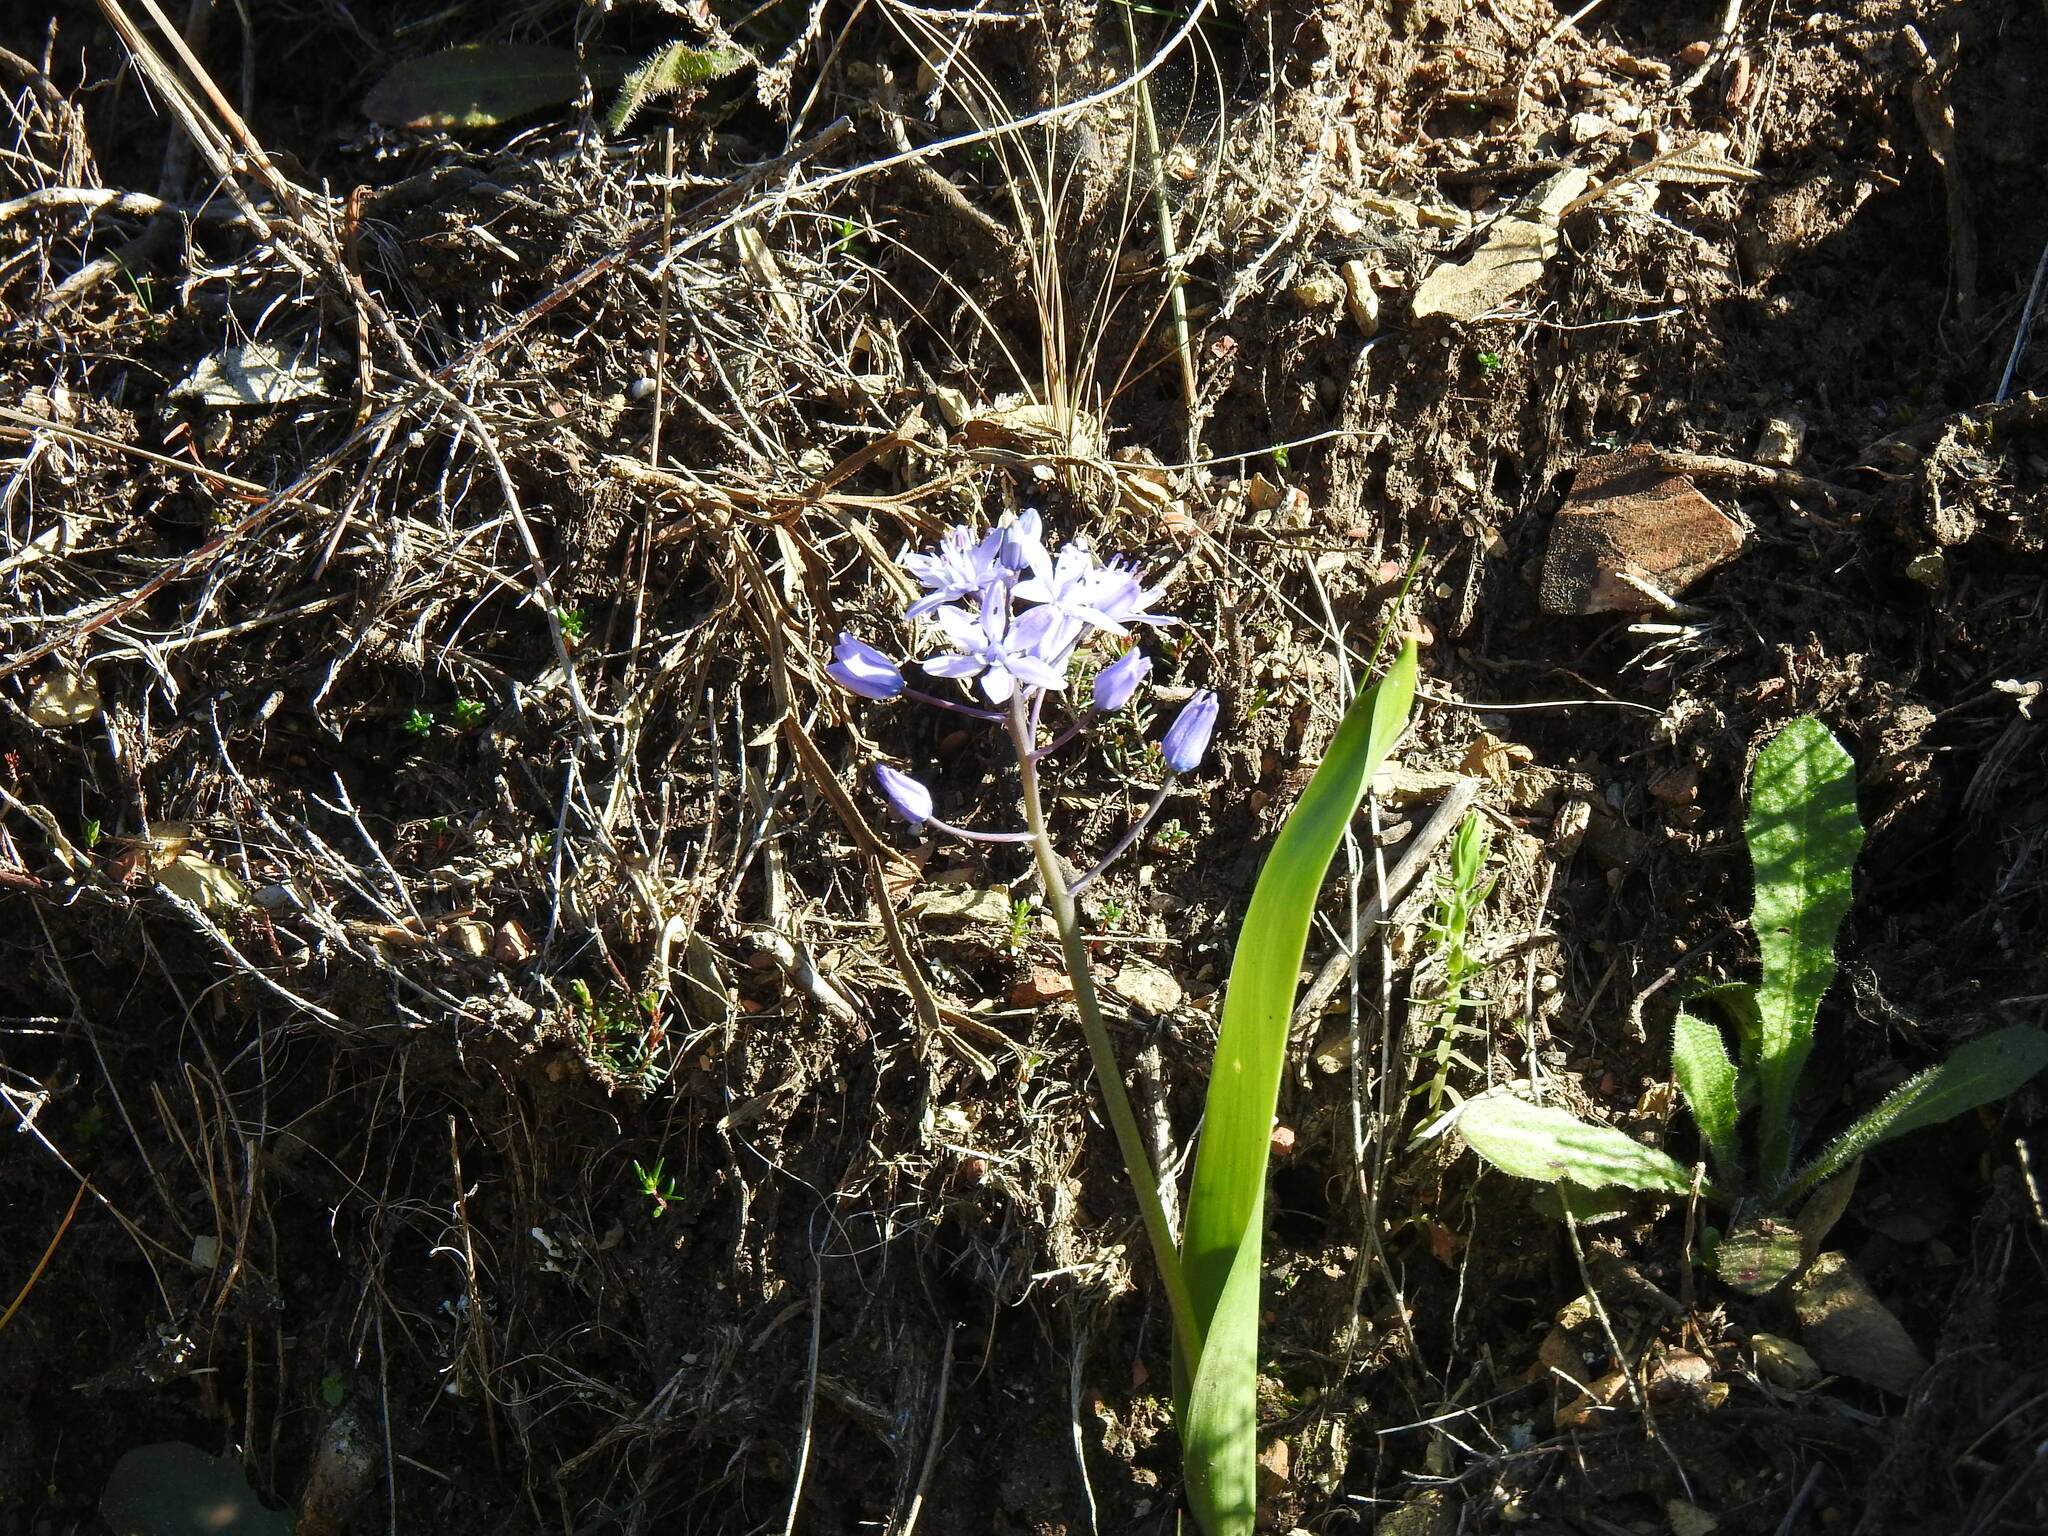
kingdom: Plantae
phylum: Tracheophyta
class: Liliopsida
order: Asparagales
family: Asparagaceae
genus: Scilla
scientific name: Scilla monophyllos
